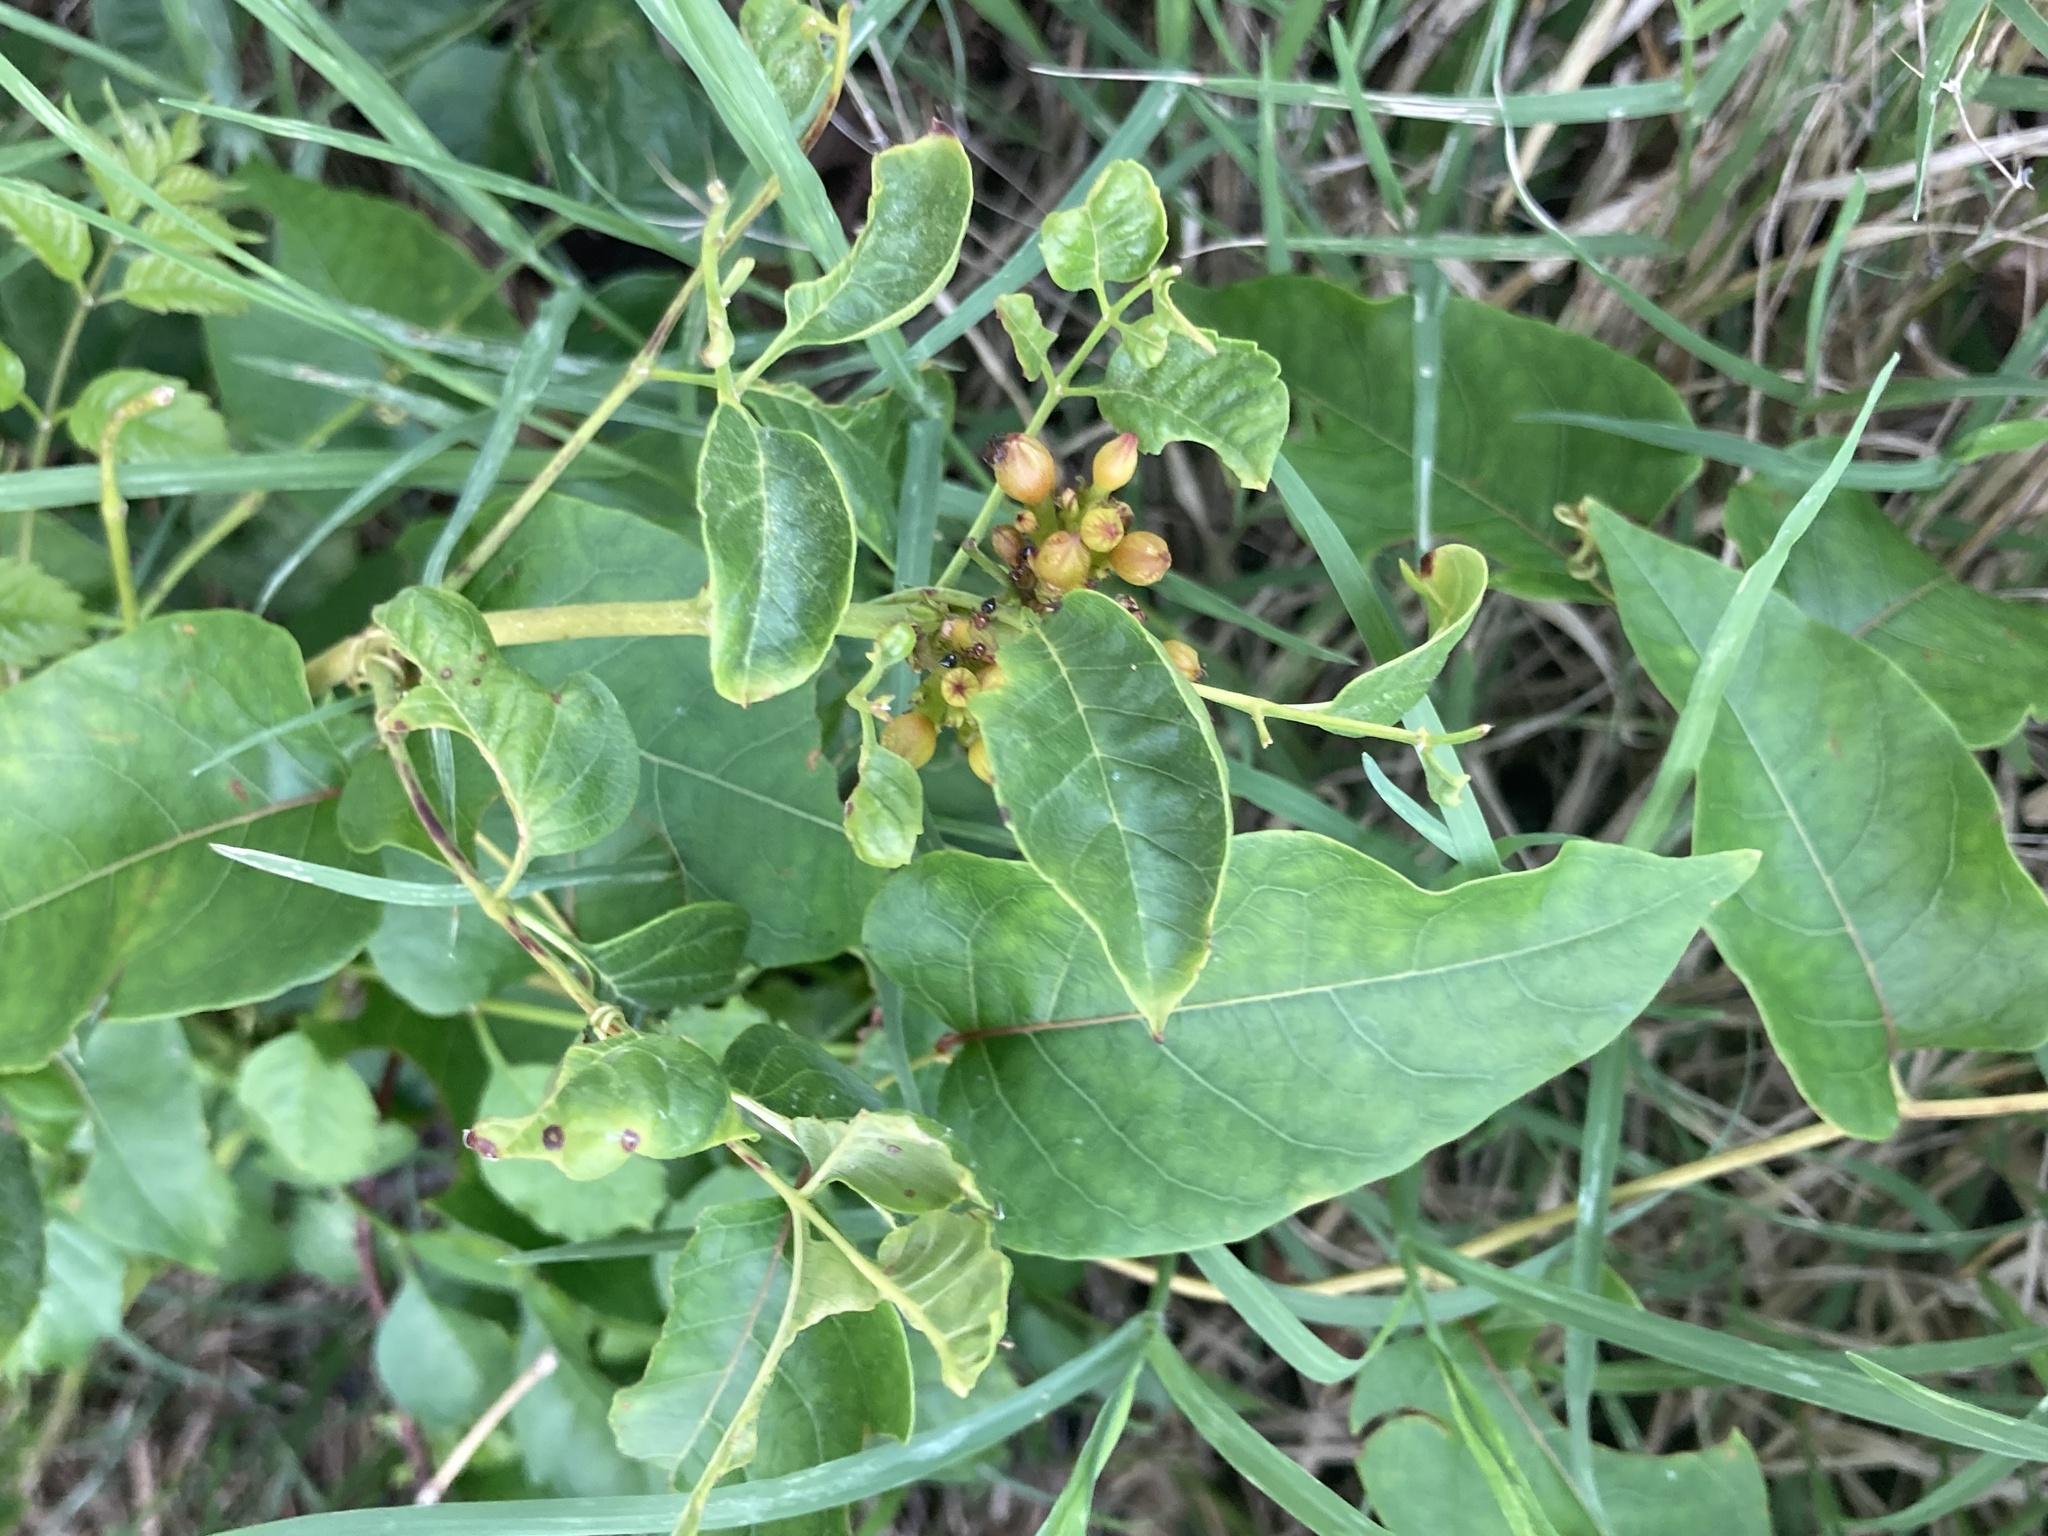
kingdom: Plantae
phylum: Tracheophyta
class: Magnoliopsida
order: Celastrales
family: Celastraceae
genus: Celastrus
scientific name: Celastrus scandens
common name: American bittersweet
